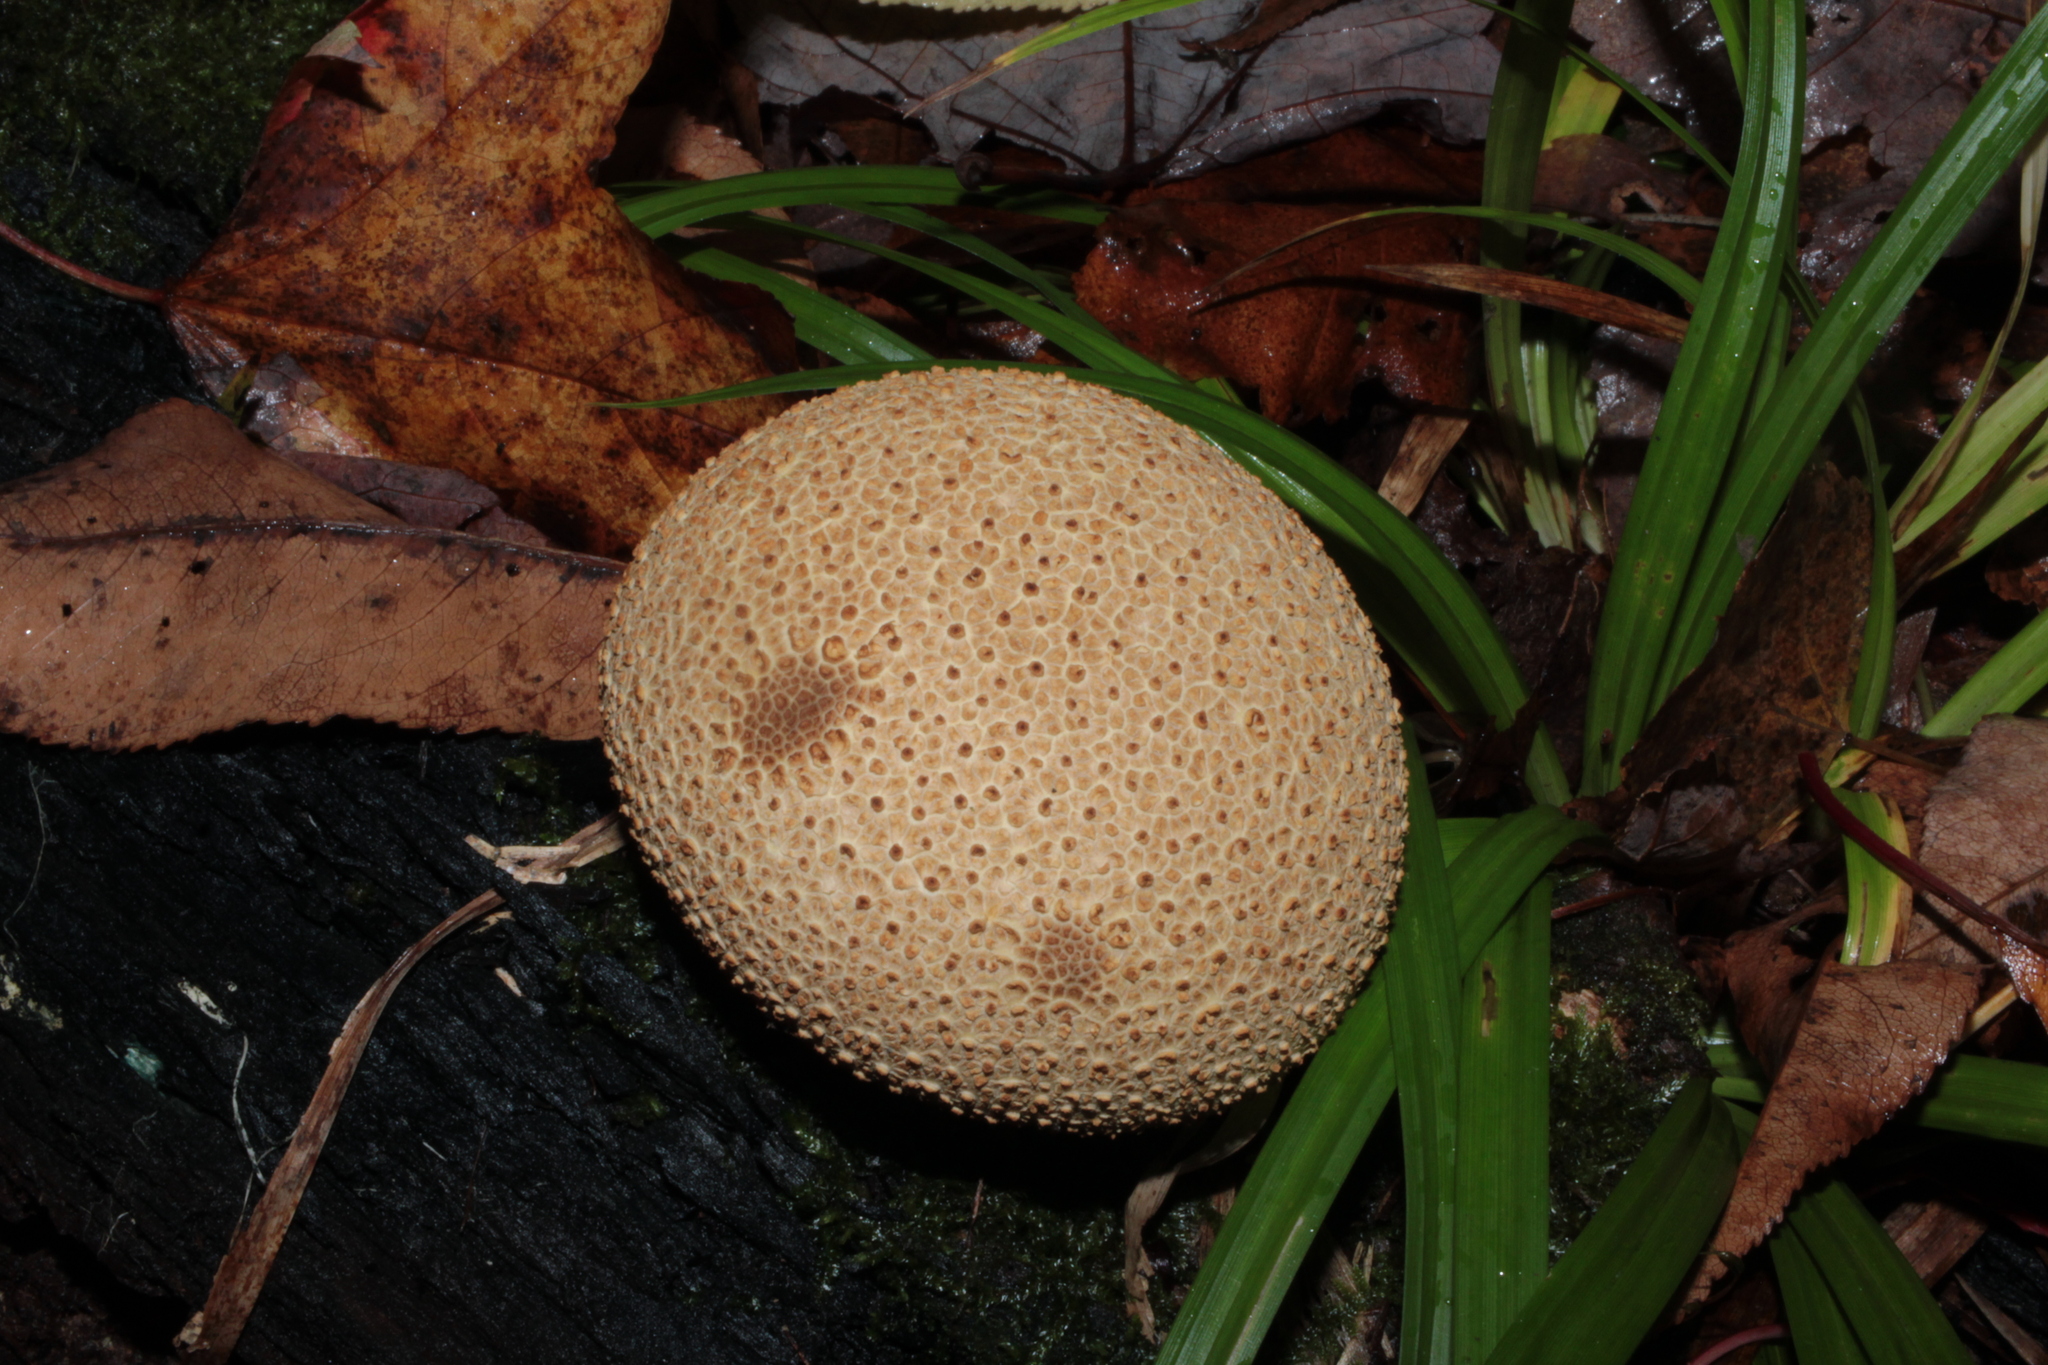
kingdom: Fungi
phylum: Basidiomycota
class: Agaricomycetes
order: Boletales
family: Sclerodermataceae
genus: Scleroderma
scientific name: Scleroderma citrinum
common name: Common earthball
